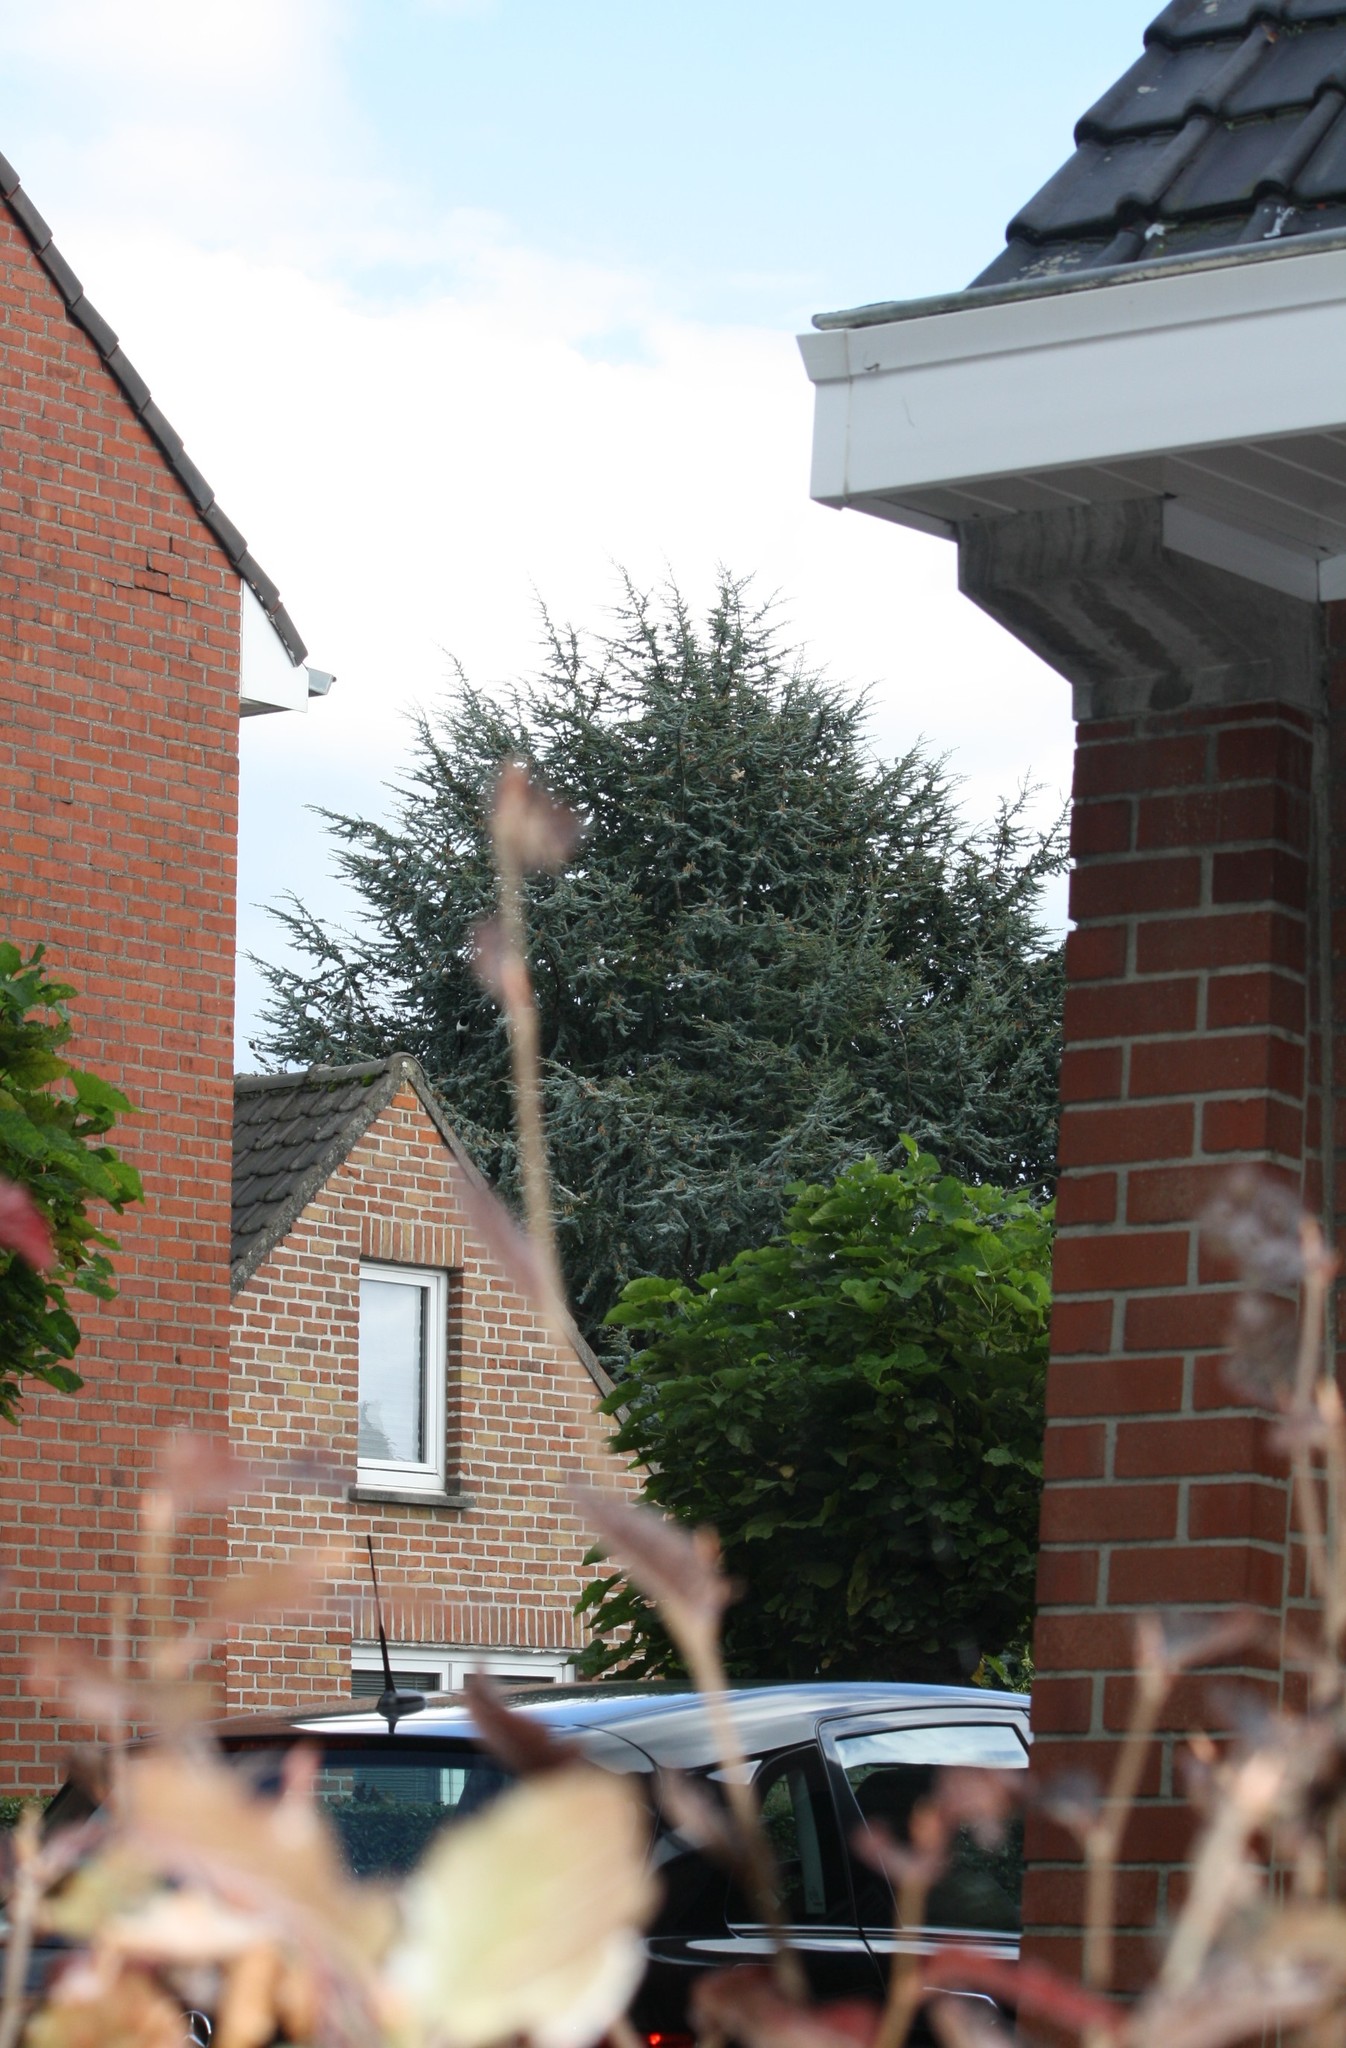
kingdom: Animalia
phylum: Arthropoda
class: Insecta
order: Hymenoptera
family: Vespidae
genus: Vespa
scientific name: Vespa velutina
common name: Asian hornet
